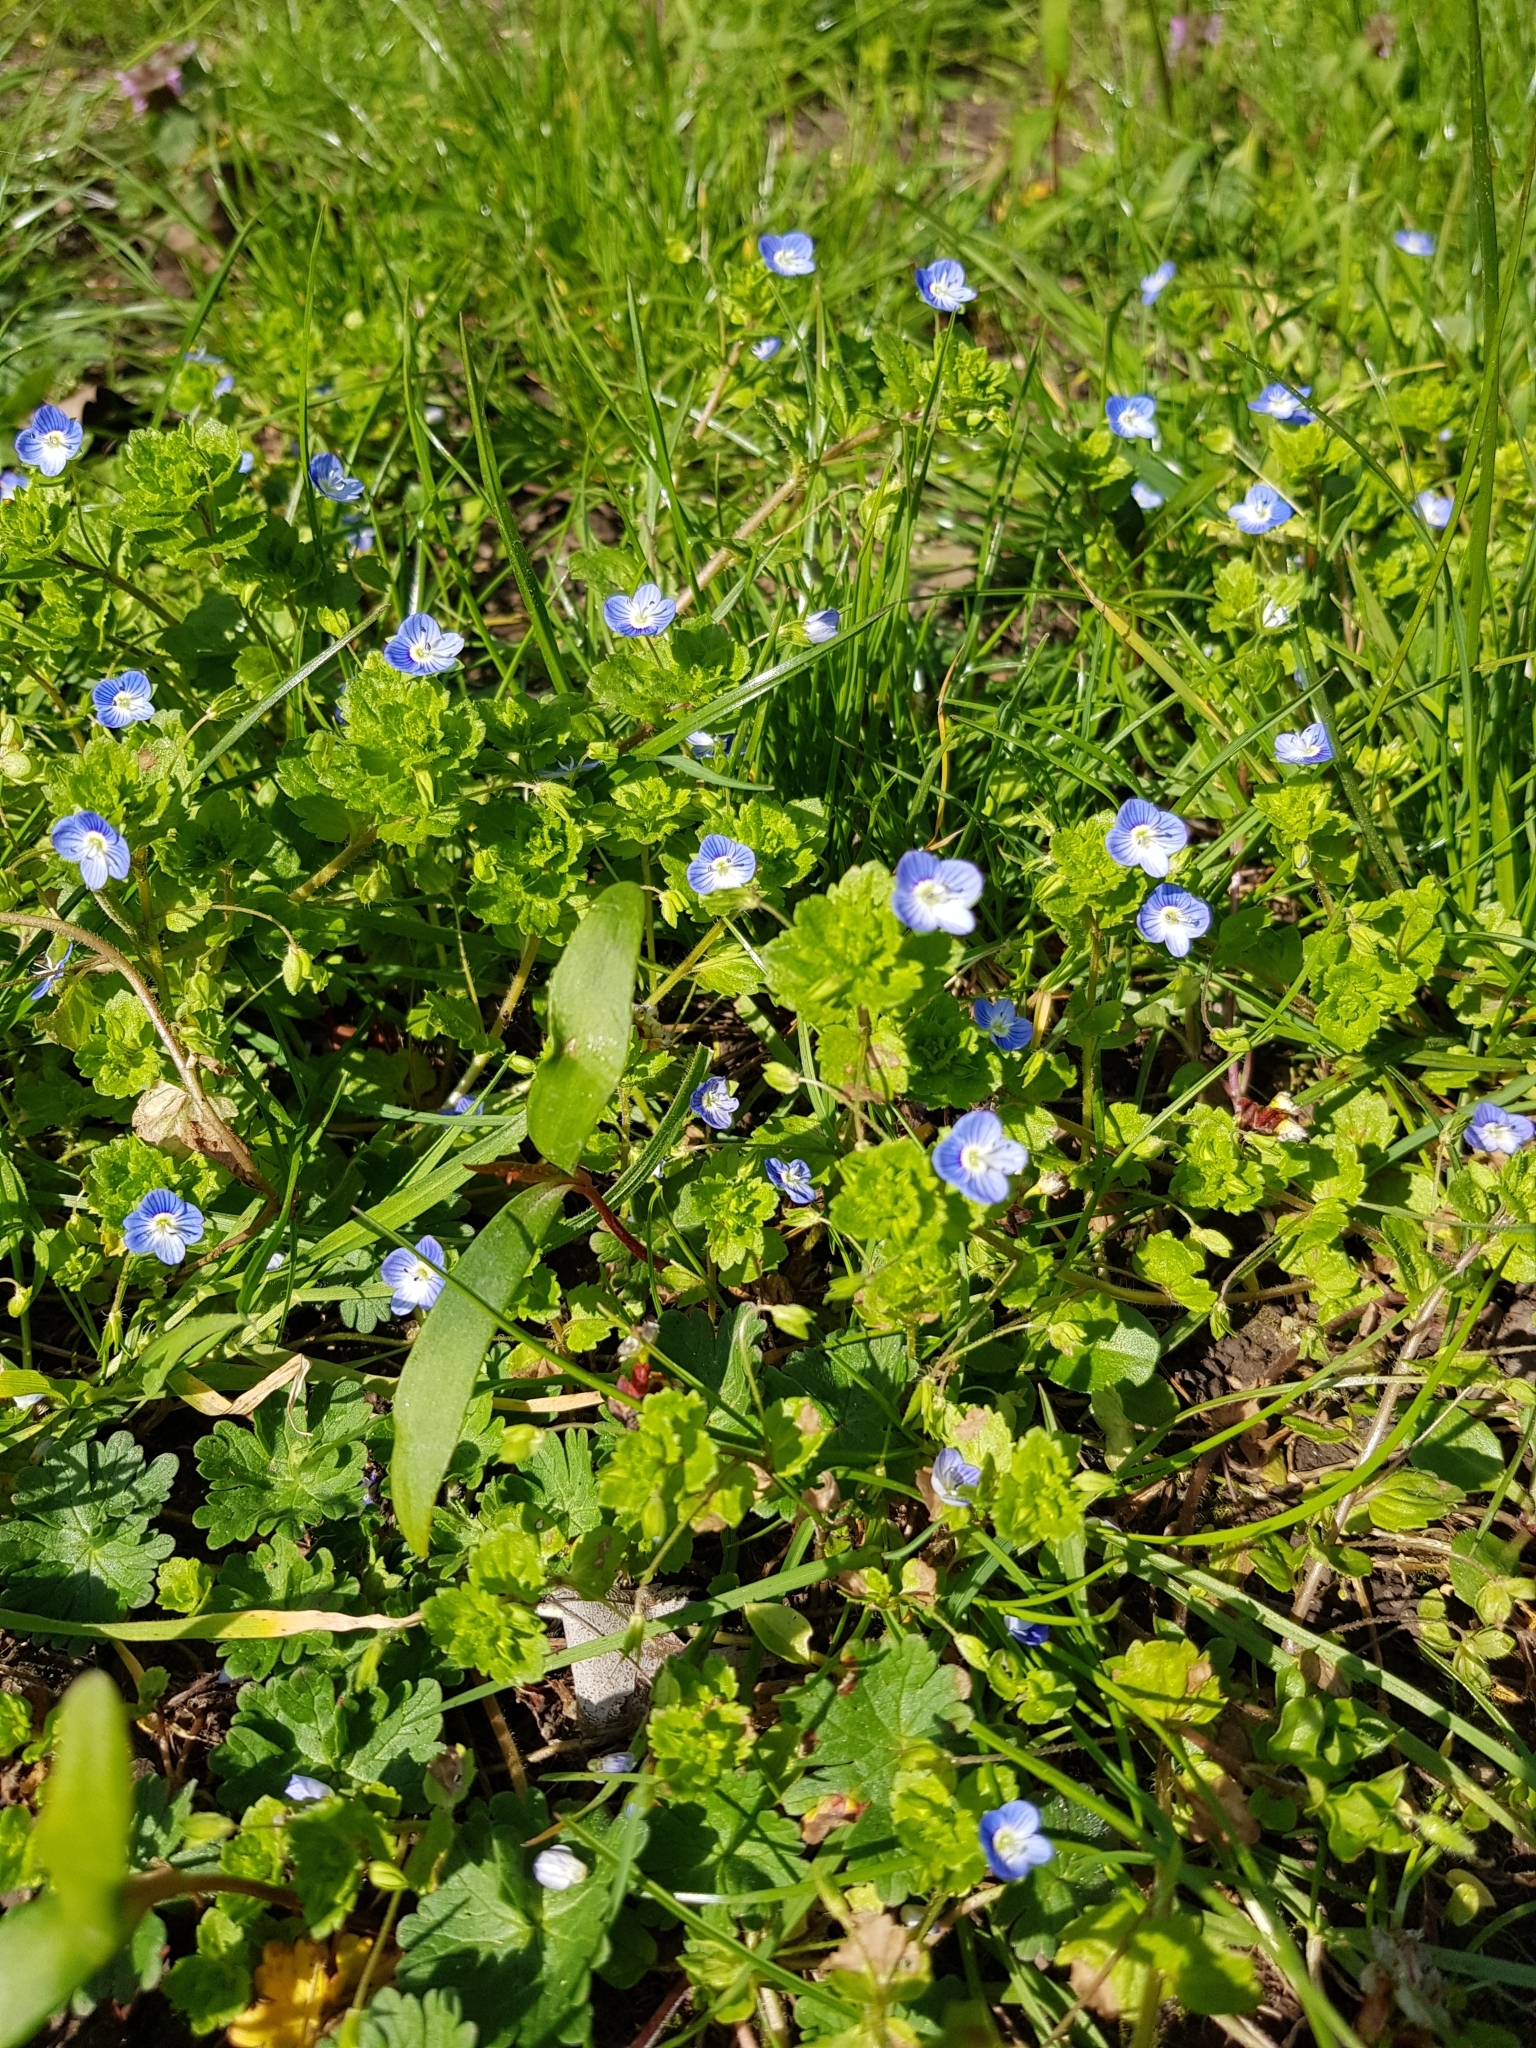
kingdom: Plantae
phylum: Tracheophyta
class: Magnoliopsida
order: Lamiales
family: Plantaginaceae
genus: Veronica
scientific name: Veronica persica
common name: Common field-speedwell
